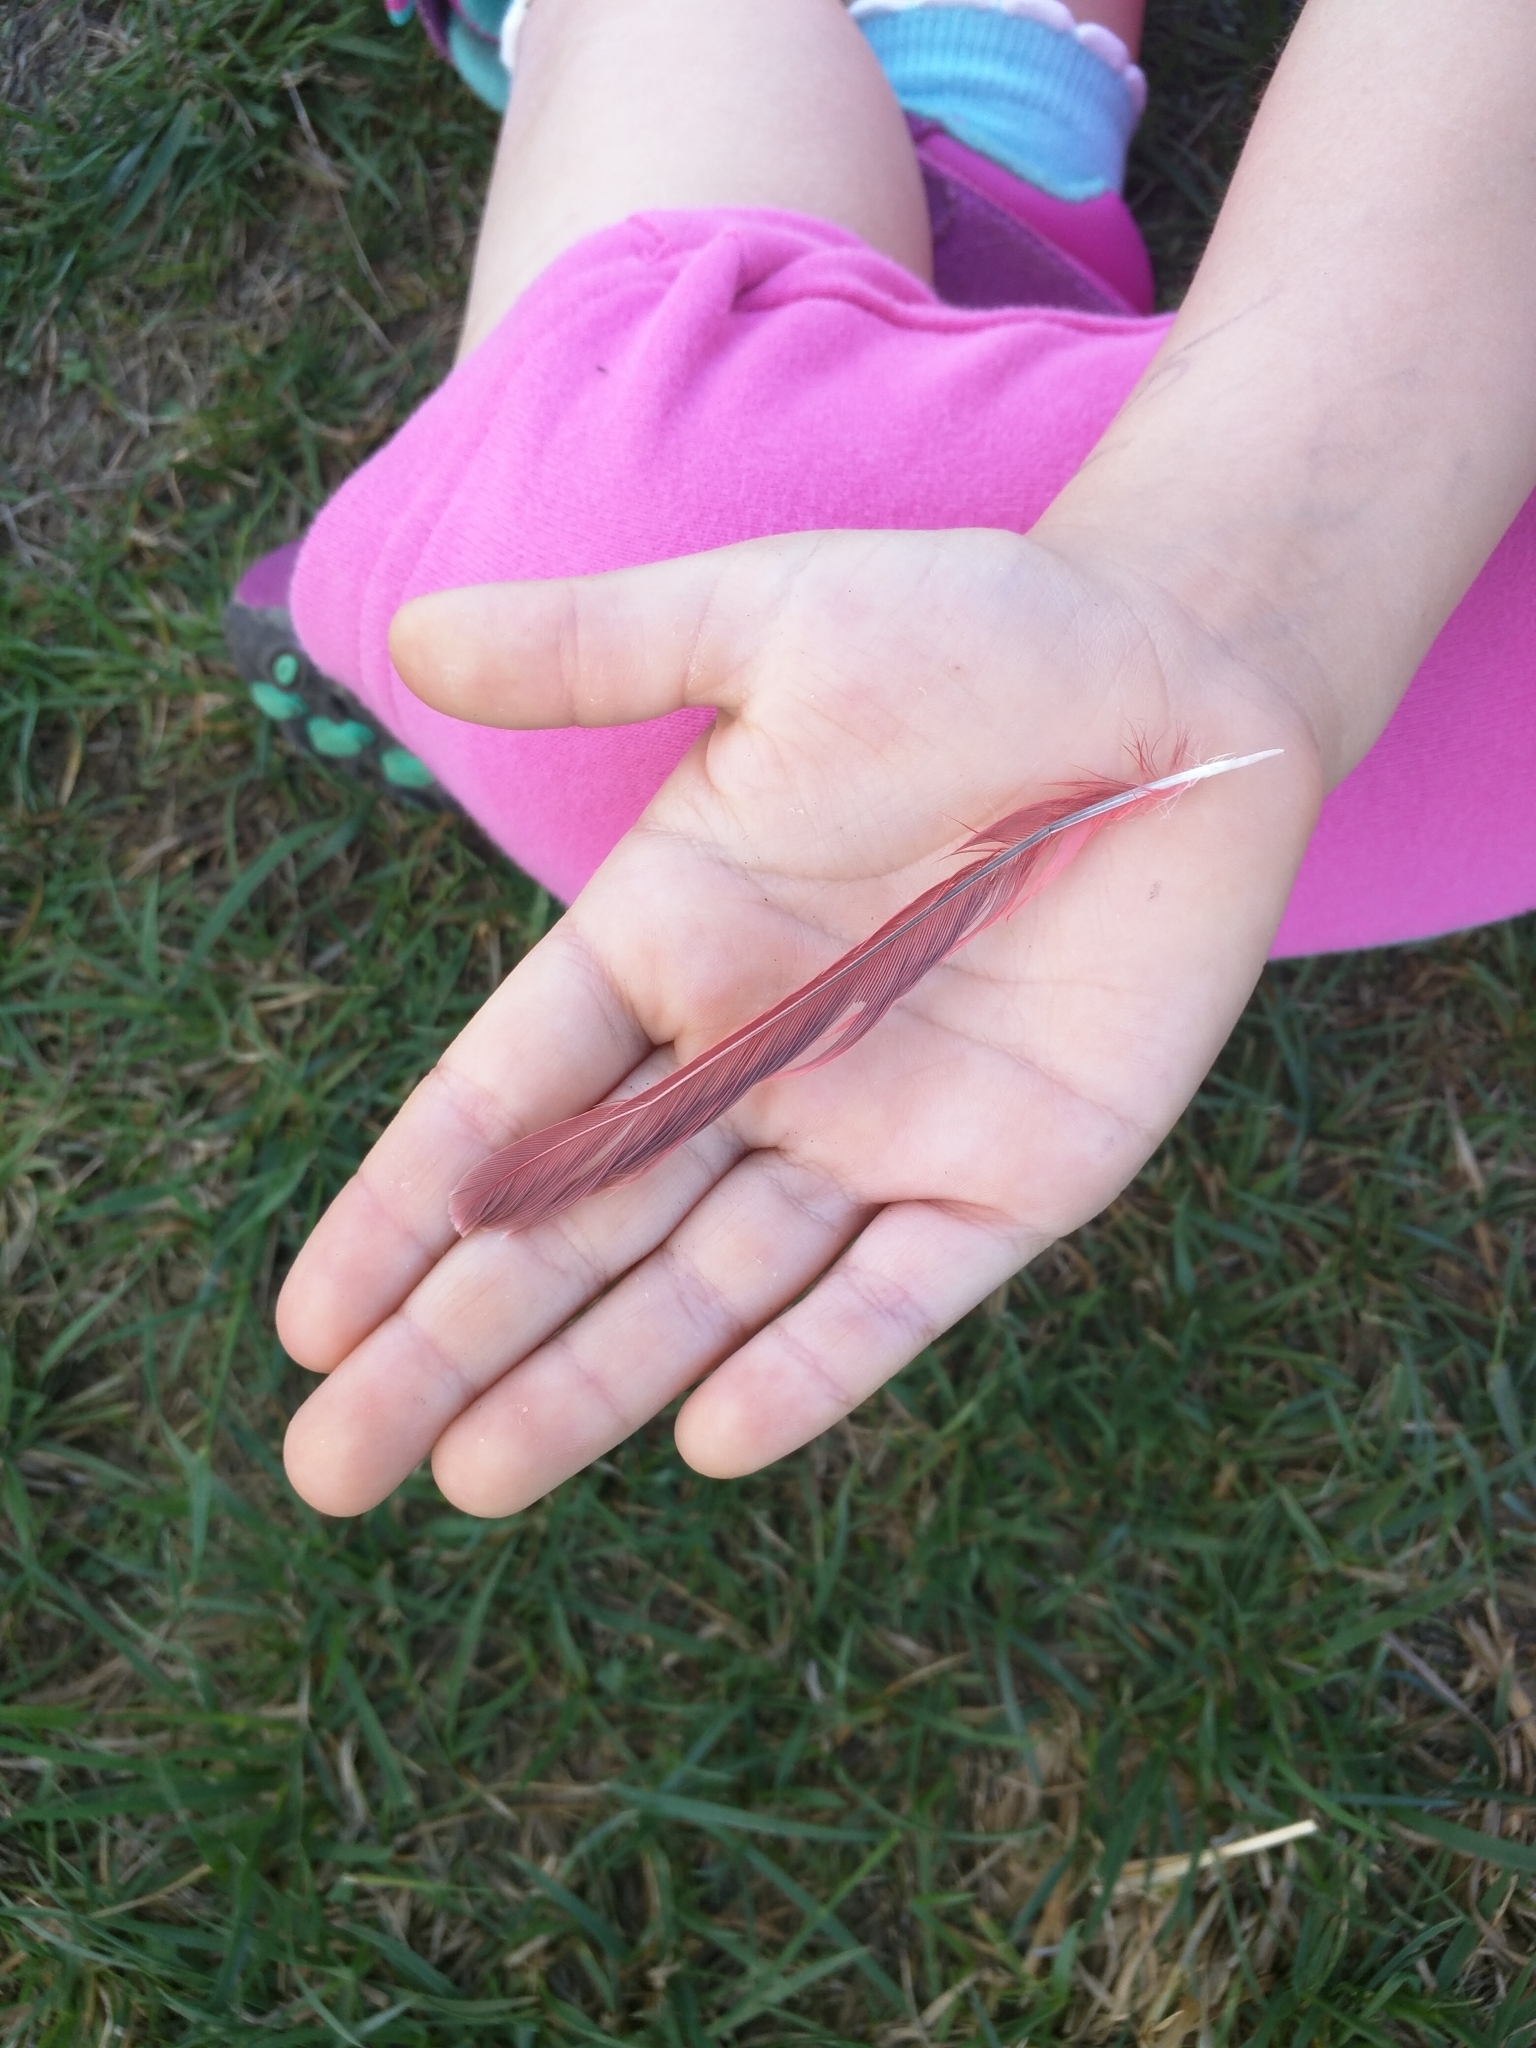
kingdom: Animalia
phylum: Chordata
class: Aves
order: Passeriformes
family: Cardinalidae
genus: Cardinalis
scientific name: Cardinalis cardinalis
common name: Northern cardinal
